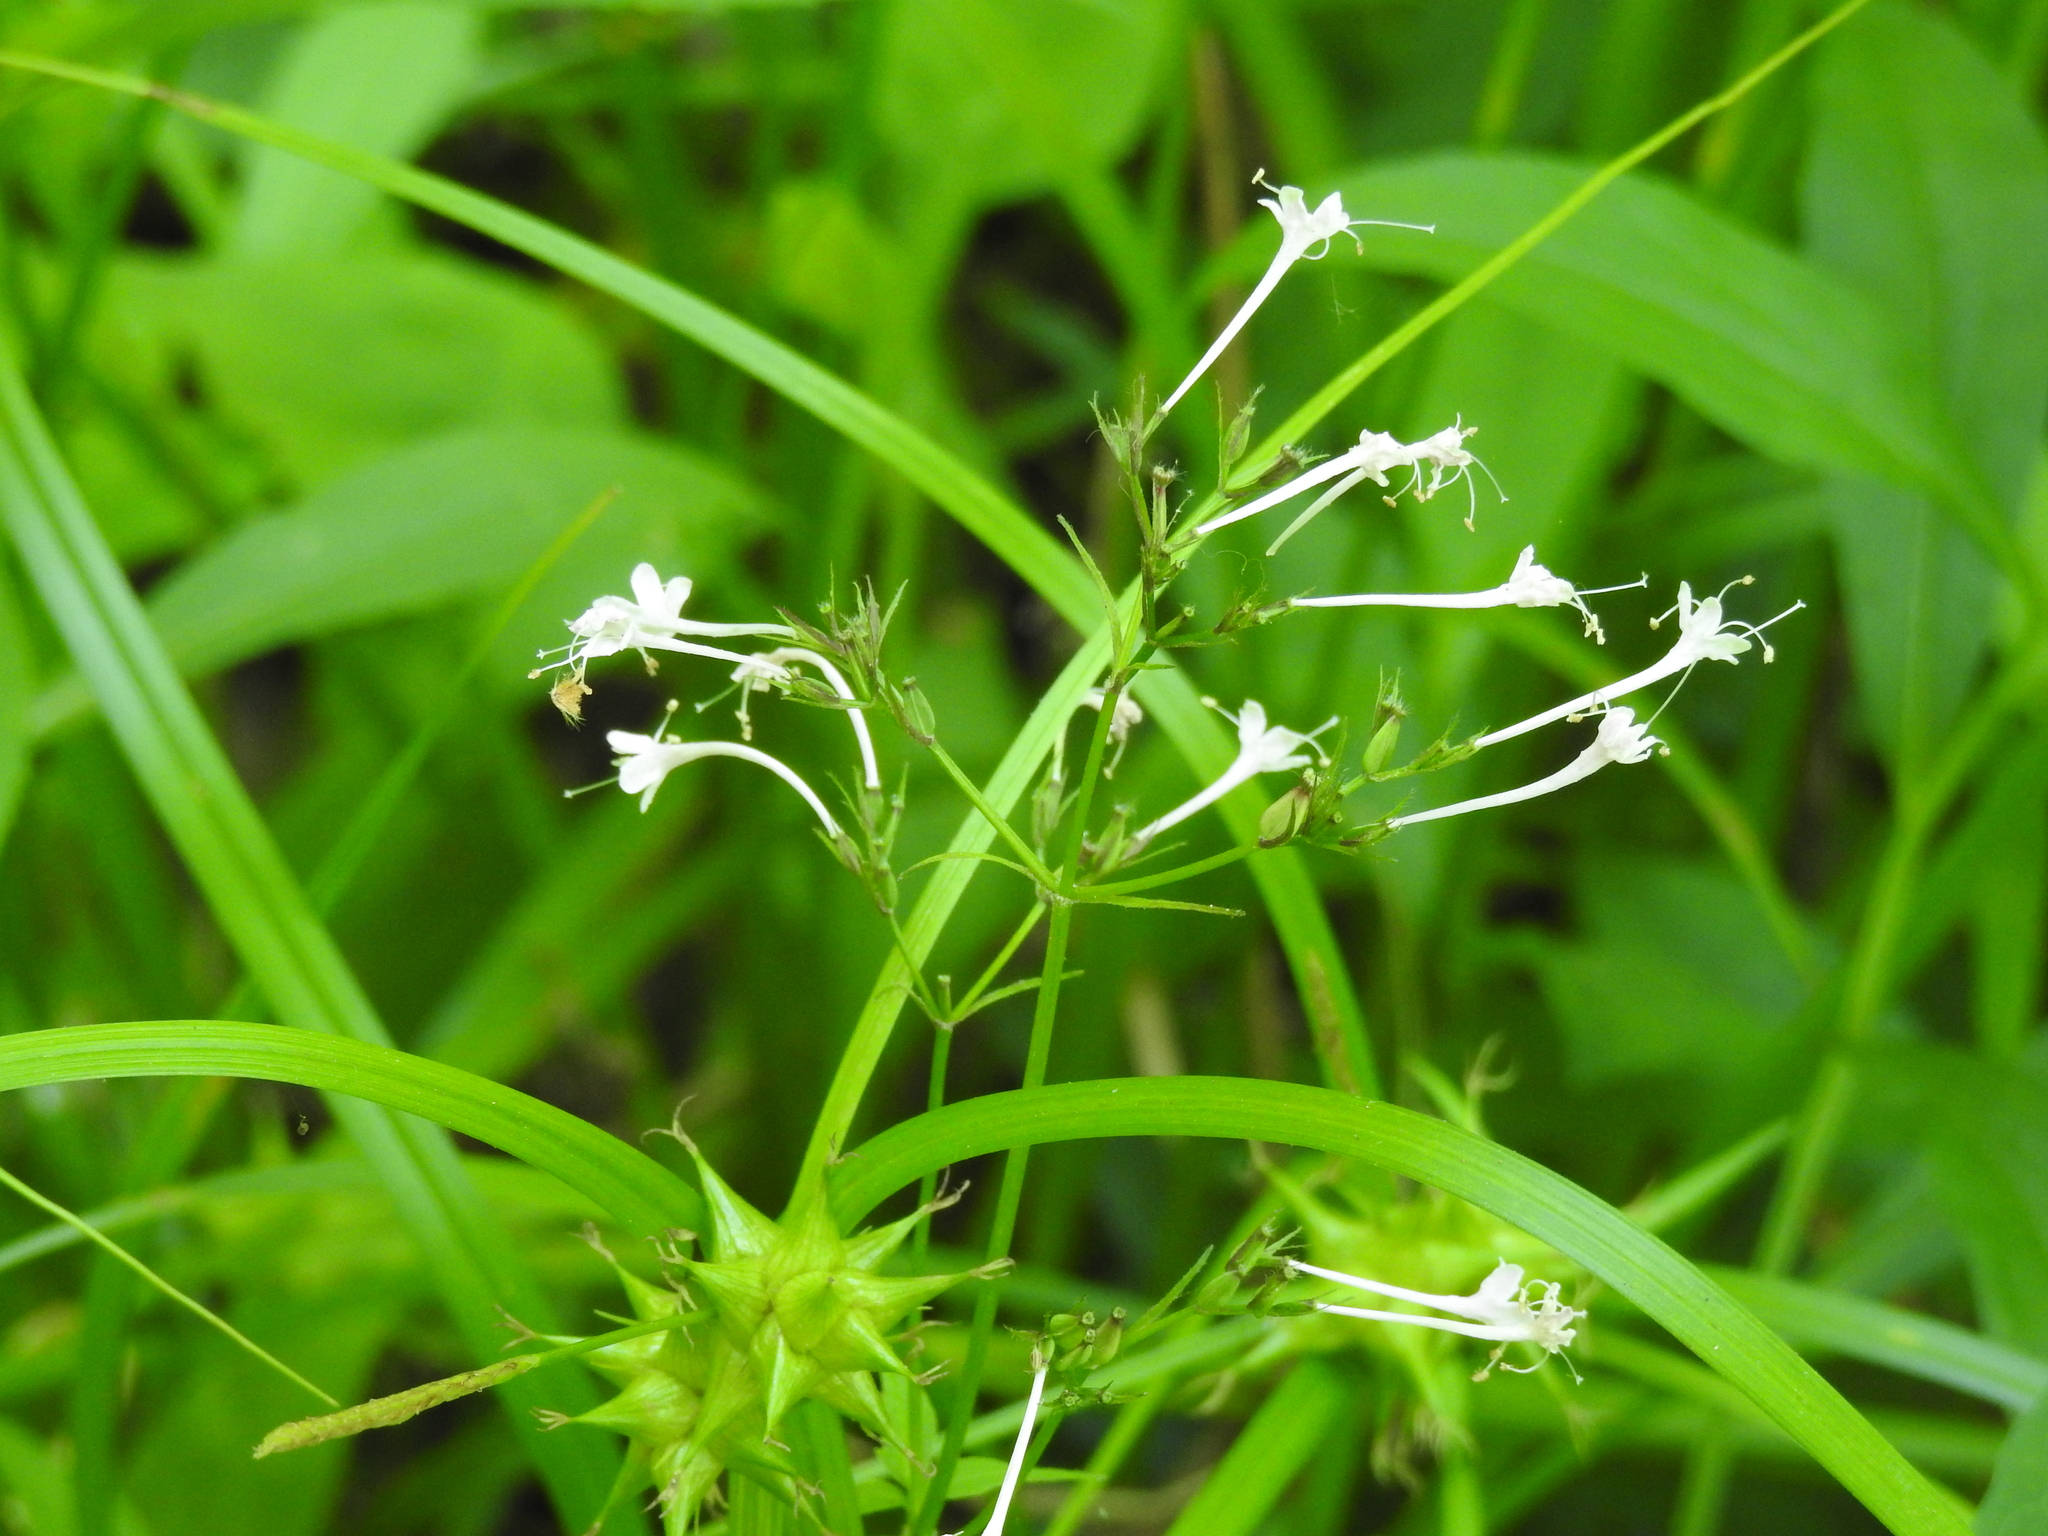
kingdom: Plantae
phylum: Tracheophyta
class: Magnoliopsida
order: Dipsacales
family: Caprifoliaceae
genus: Valeriana
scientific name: Valeriana pauciflora
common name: Long-tube valeriana
